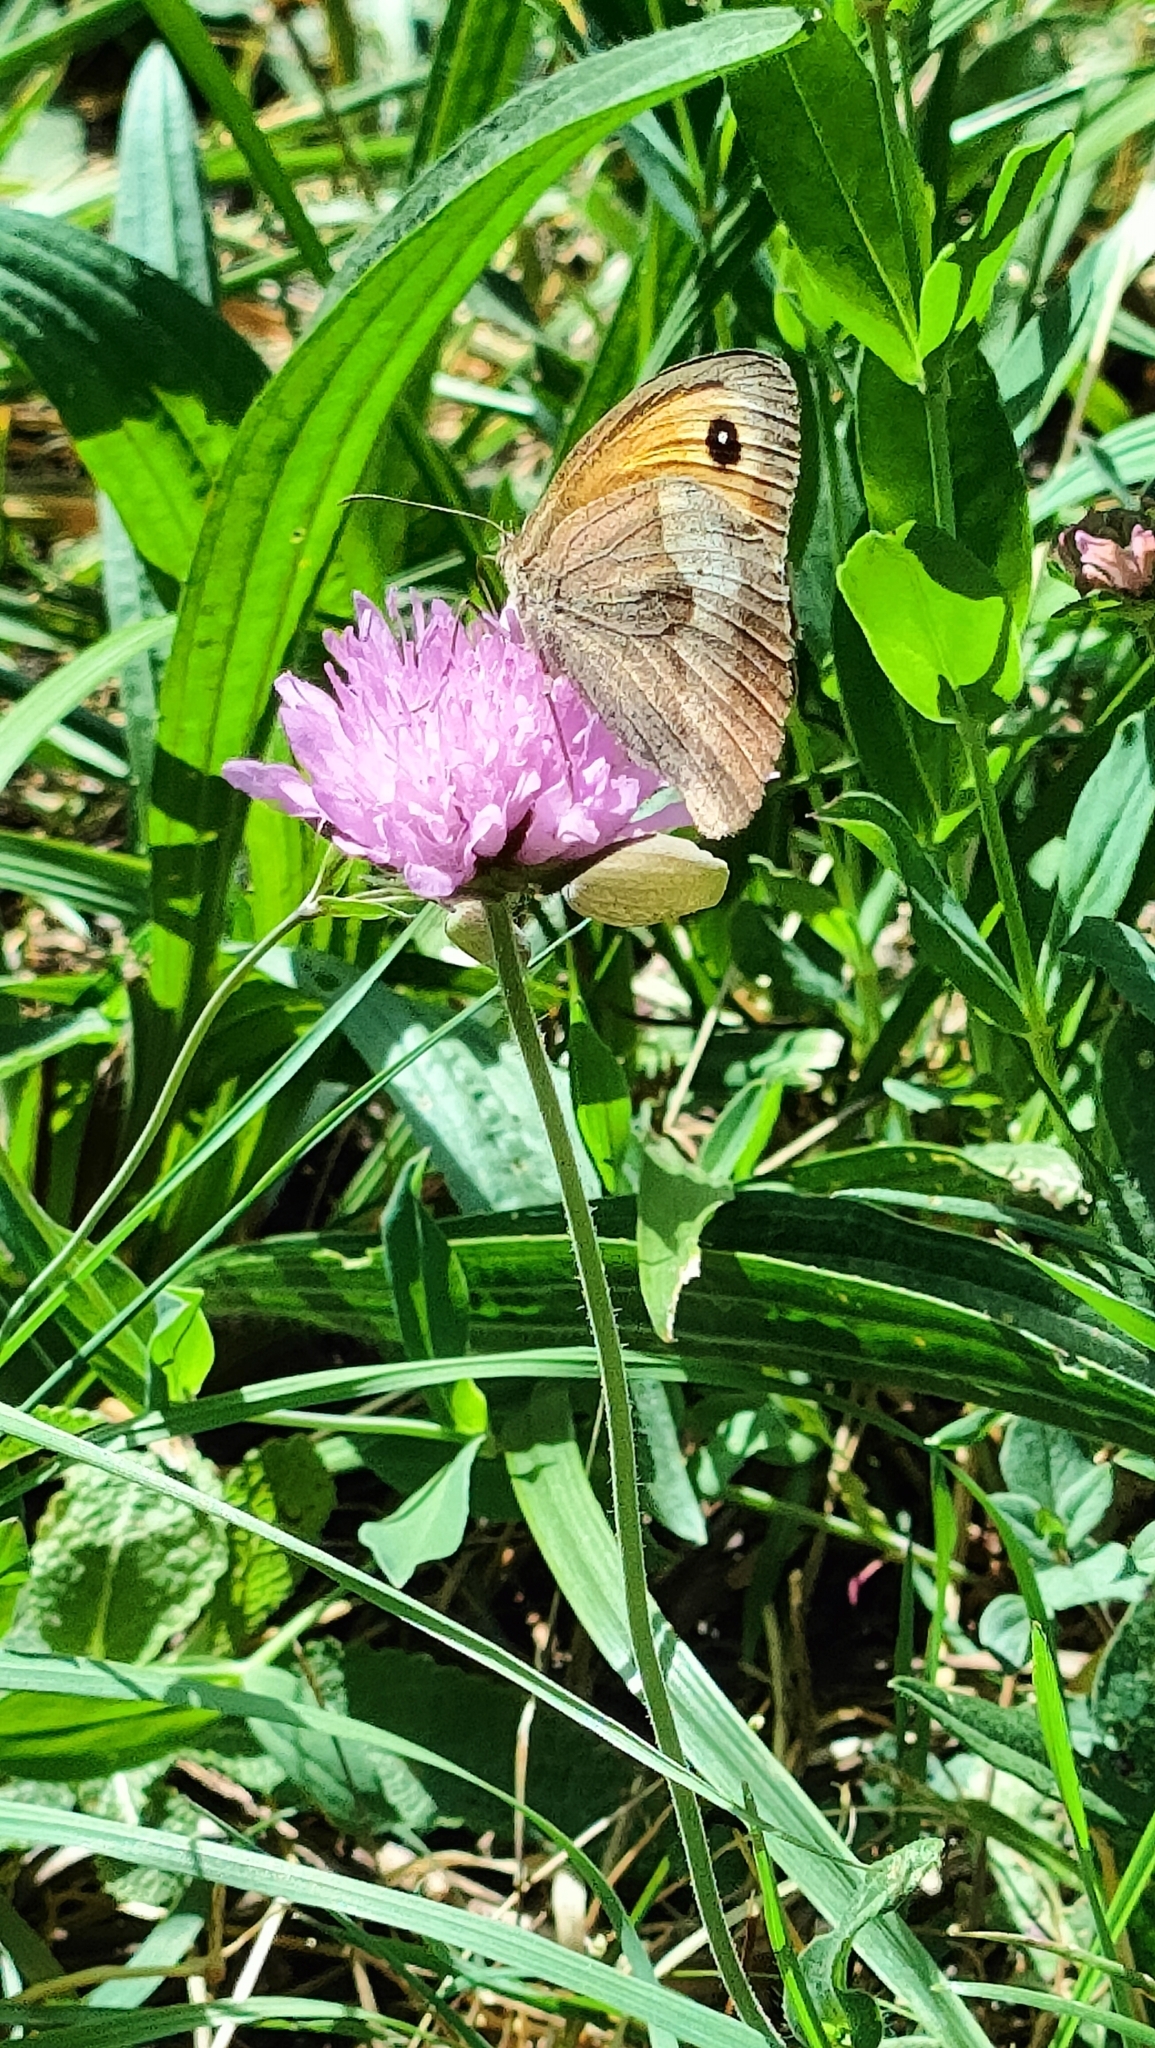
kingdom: Animalia
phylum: Arthropoda
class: Insecta
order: Lepidoptera
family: Nymphalidae
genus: Maniola
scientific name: Maniola jurtina
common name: Meadow brown
